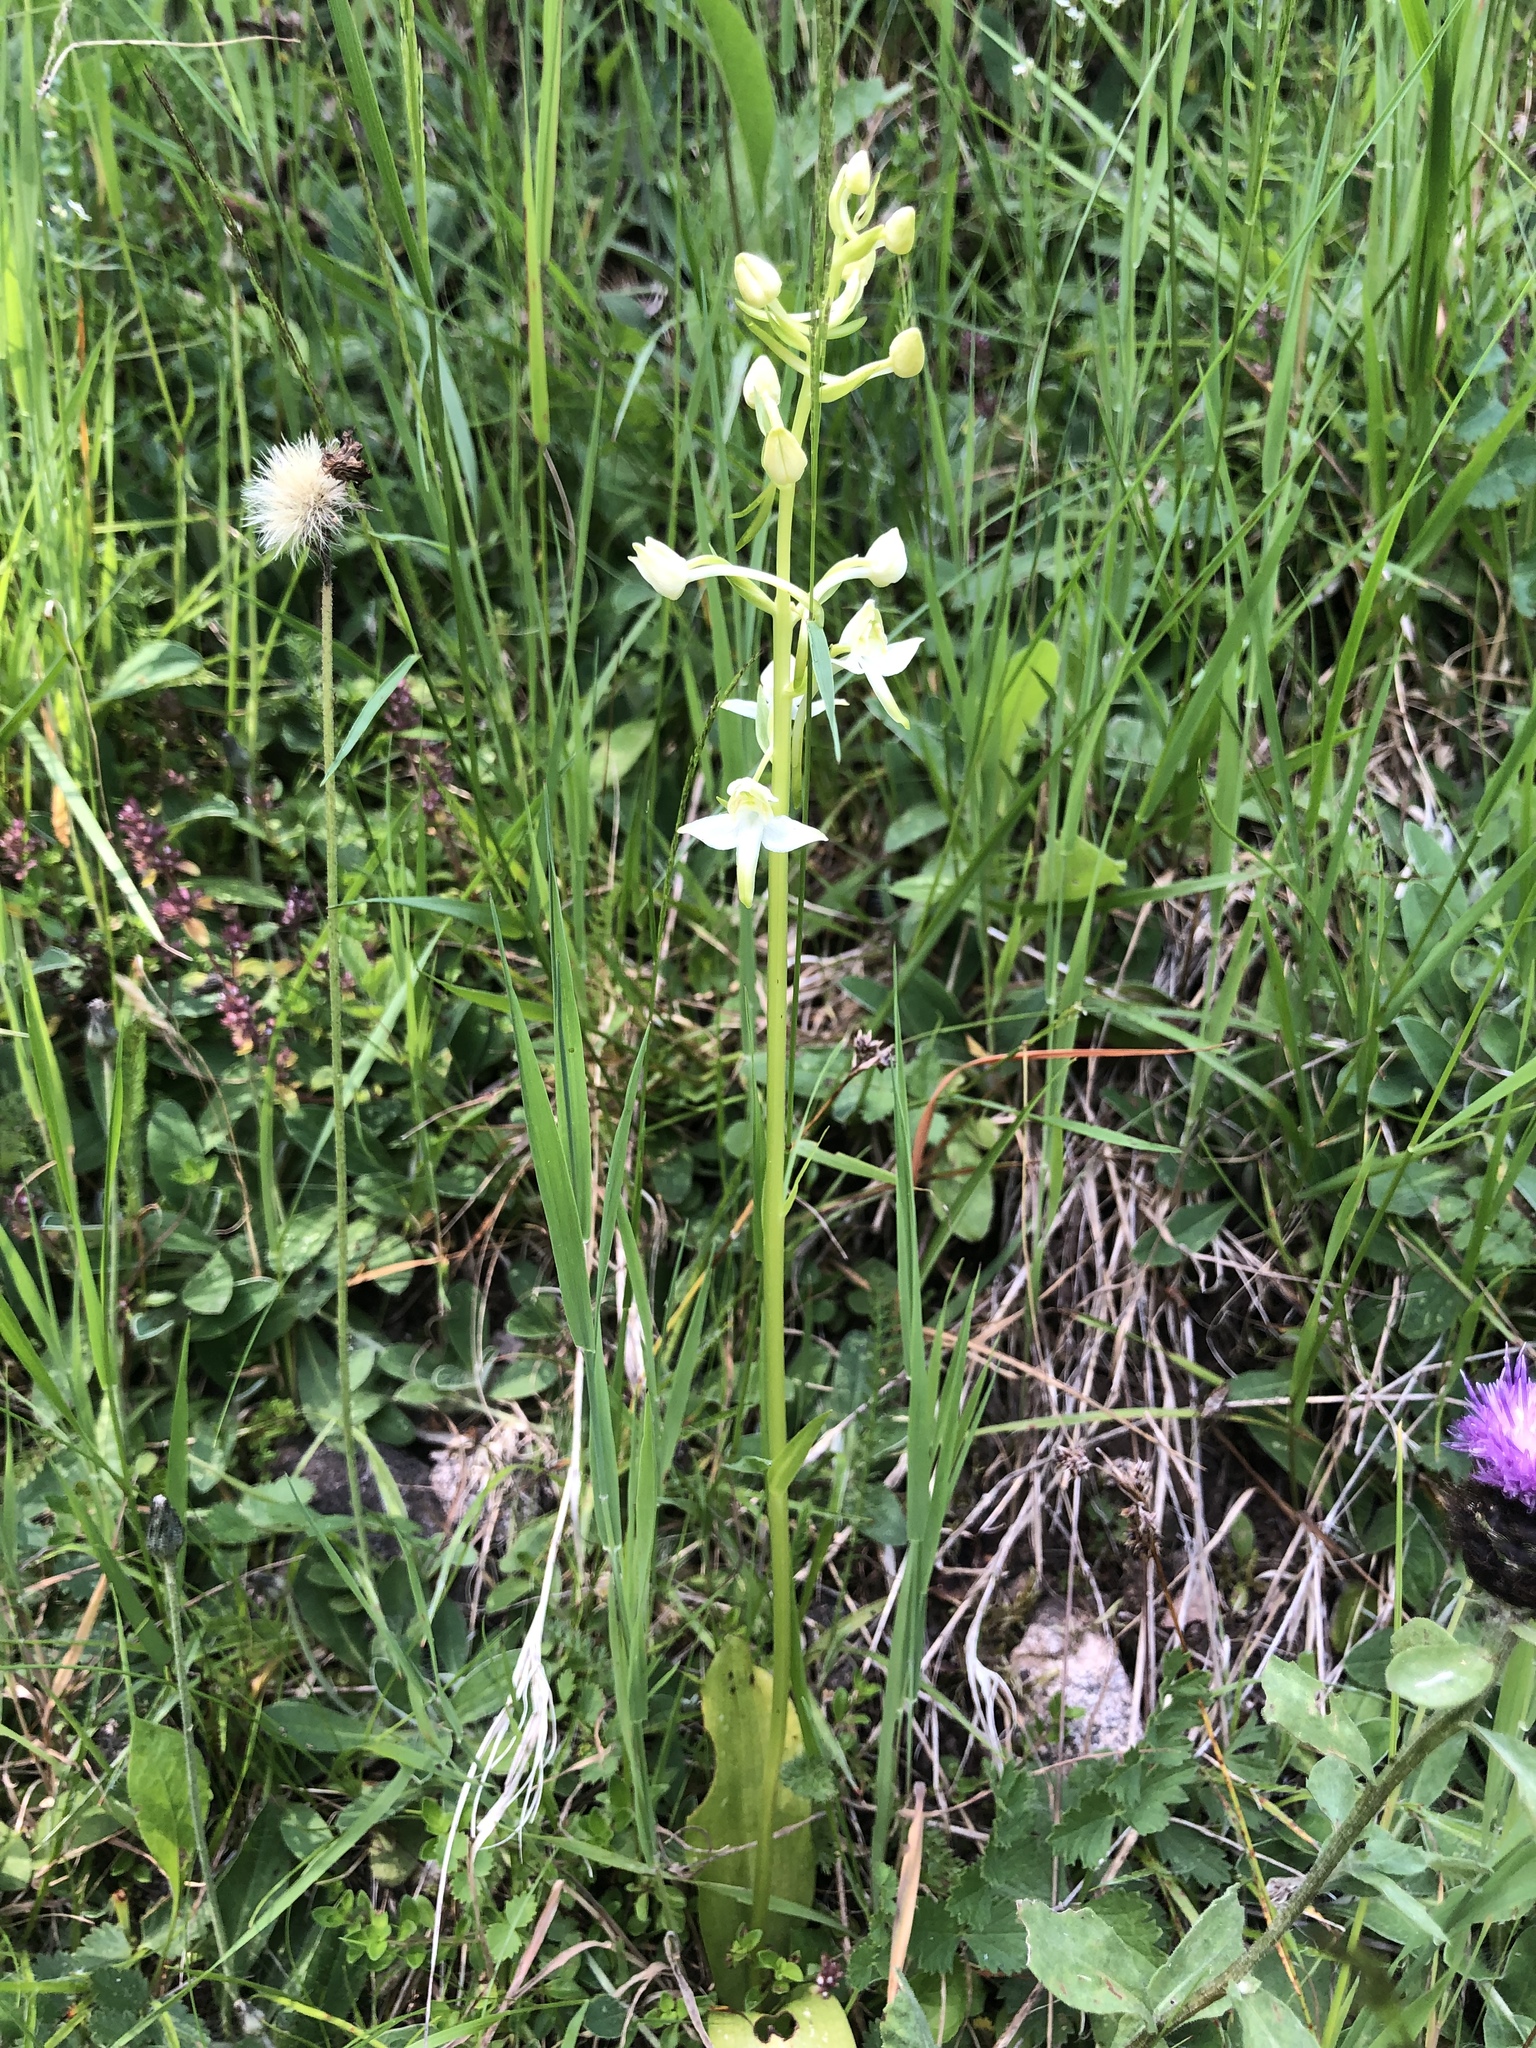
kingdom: Plantae
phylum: Tracheophyta
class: Liliopsida
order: Asparagales
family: Orchidaceae
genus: Platanthera
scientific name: Platanthera chlorantha
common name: Greater butterfly-orchid
